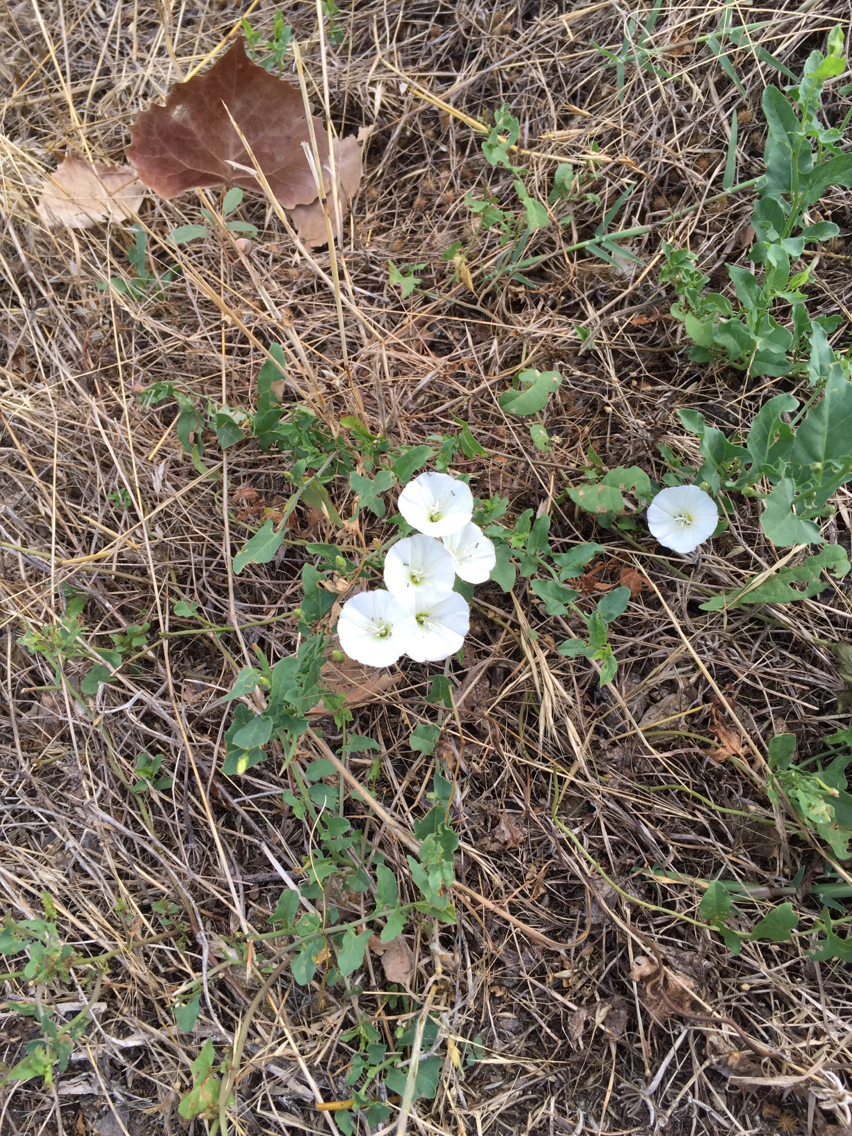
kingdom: Plantae
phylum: Tracheophyta
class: Magnoliopsida
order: Solanales
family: Convolvulaceae
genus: Convolvulus
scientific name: Convolvulus arvensis
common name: Field bindweed
